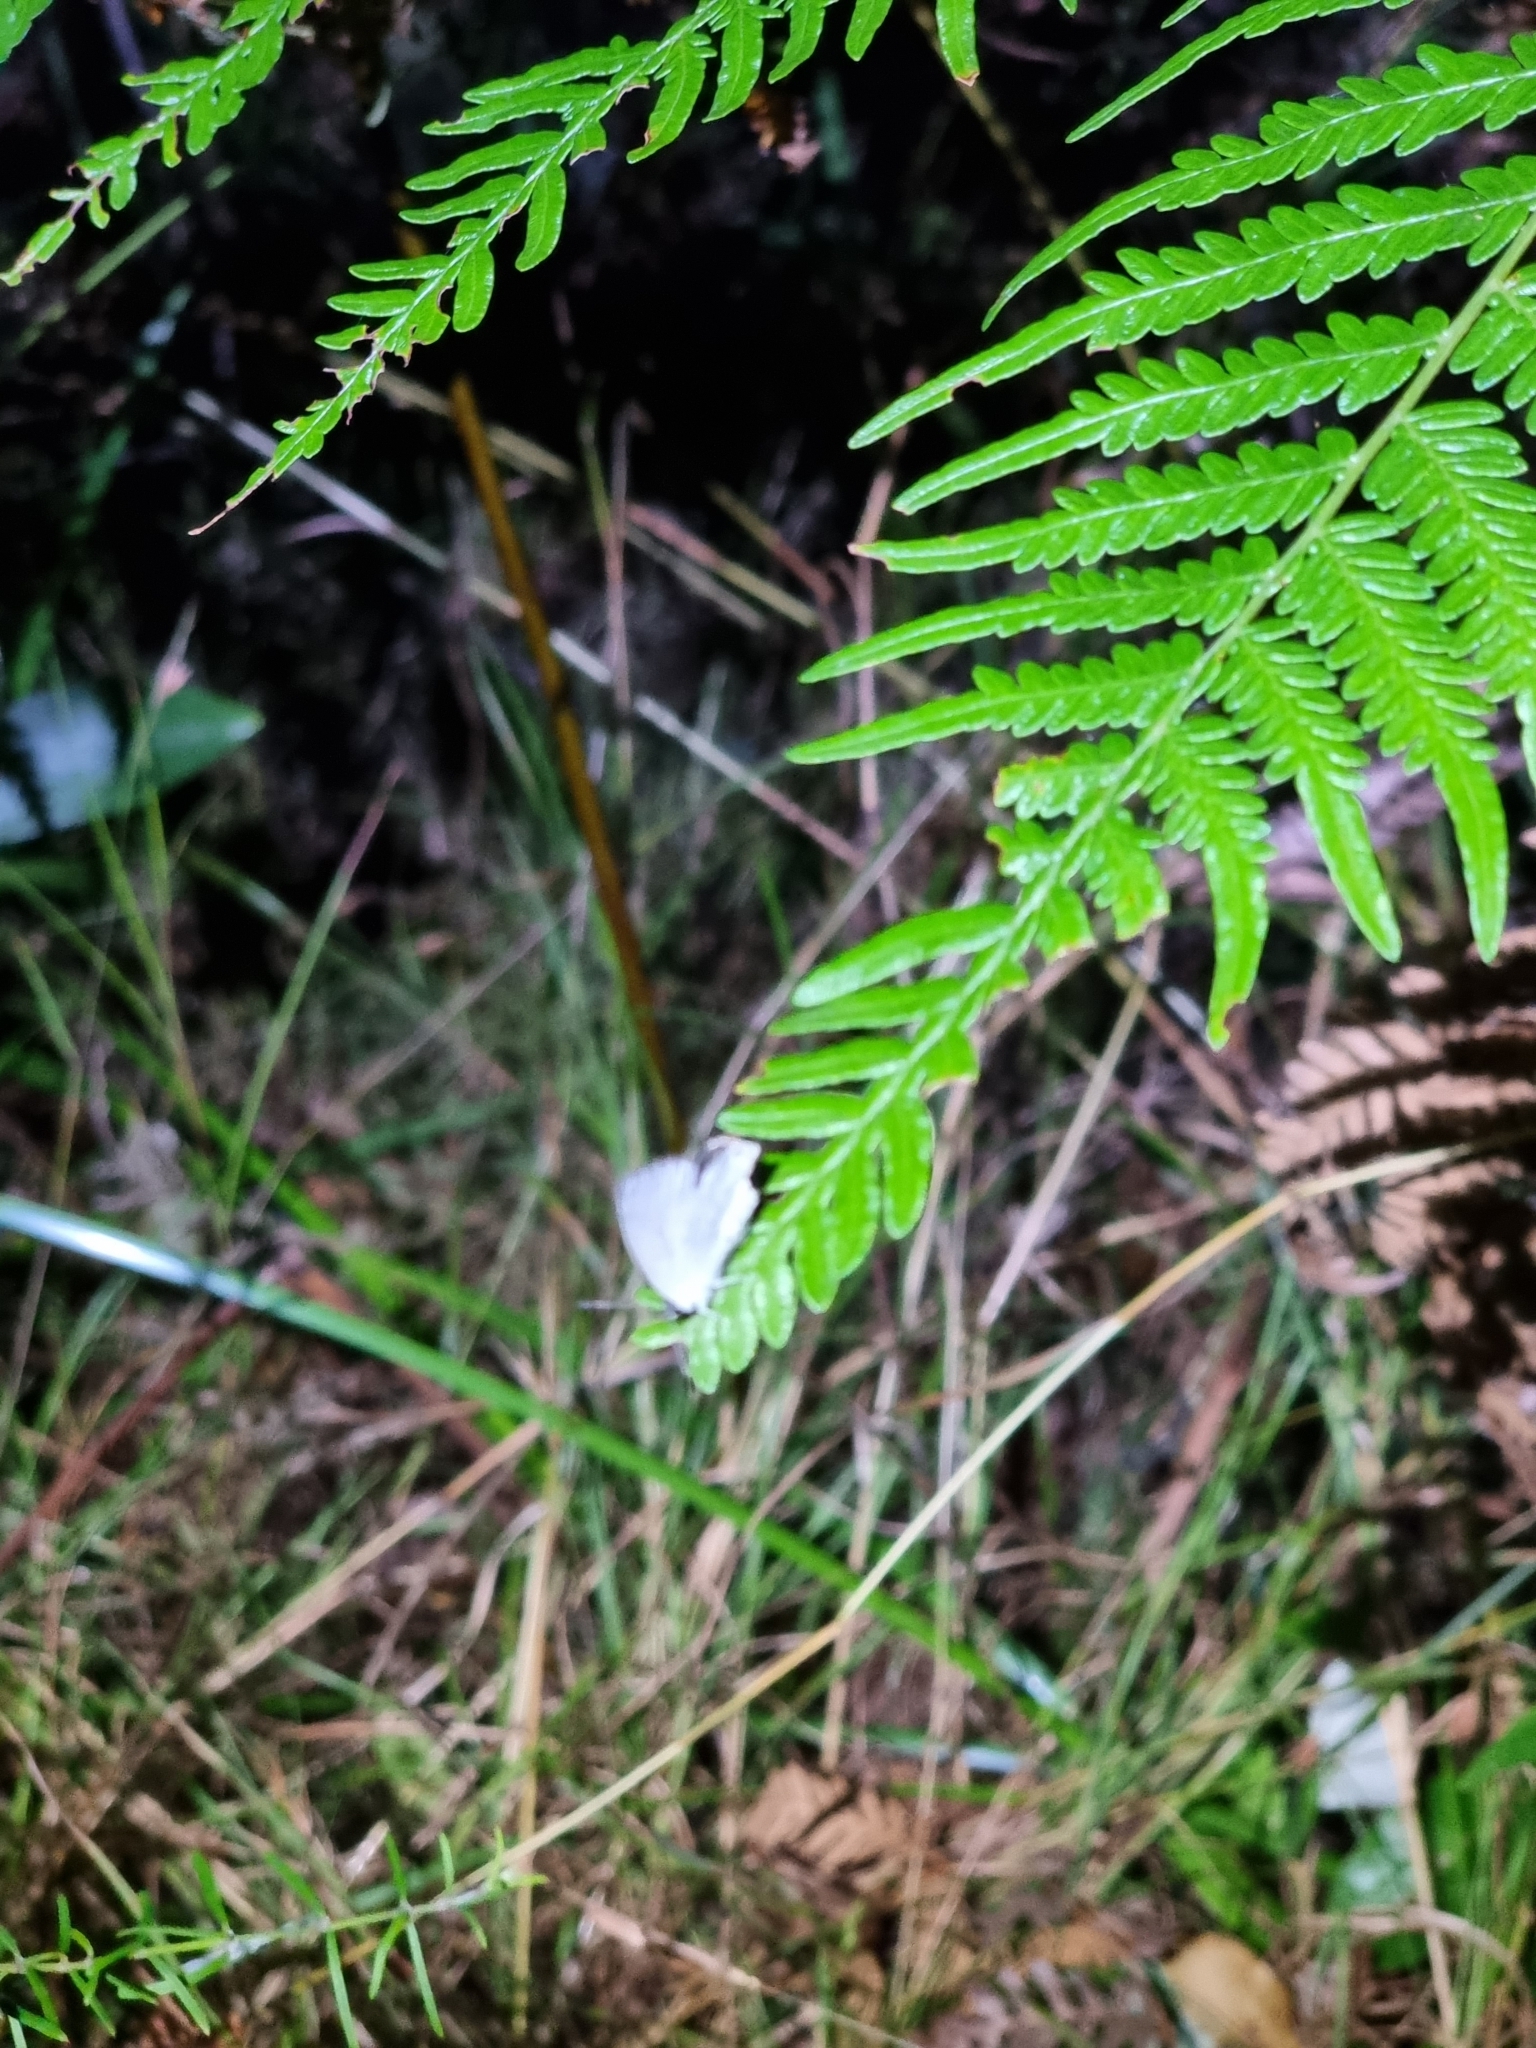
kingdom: Animalia
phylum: Arthropoda
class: Insecta
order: Lepidoptera
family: Lycaenidae
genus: Candalides
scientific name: Candalides xanthospilos
